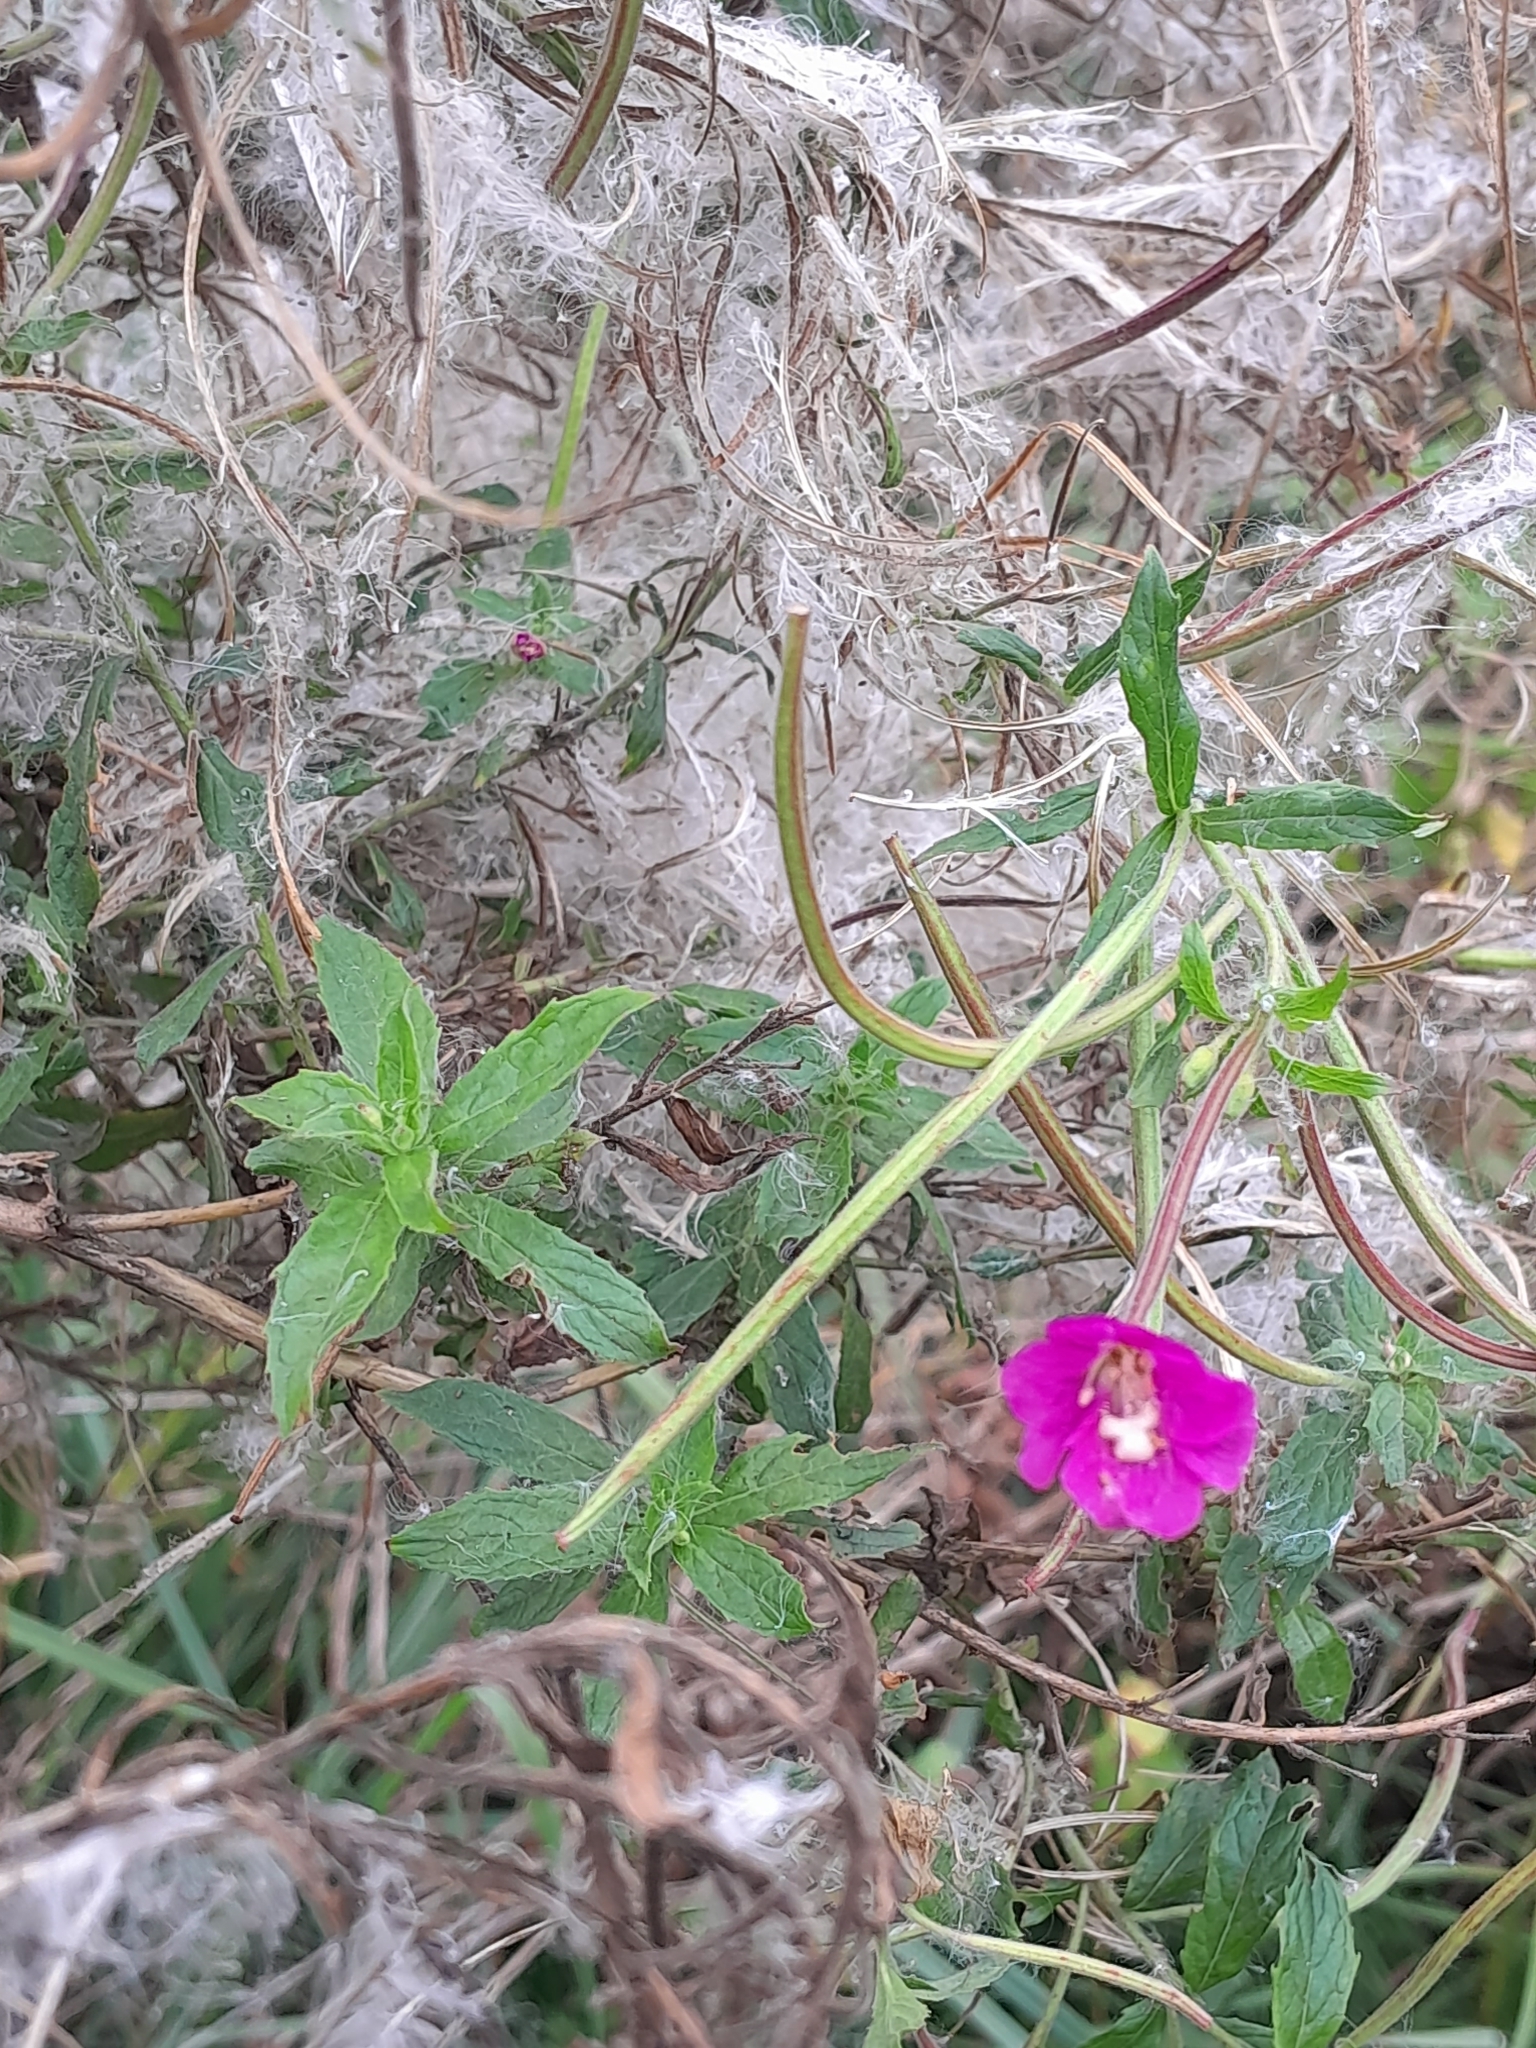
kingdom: Plantae
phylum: Tracheophyta
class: Magnoliopsida
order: Myrtales
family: Onagraceae
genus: Epilobium
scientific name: Epilobium hirsutum
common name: Great willowherb
